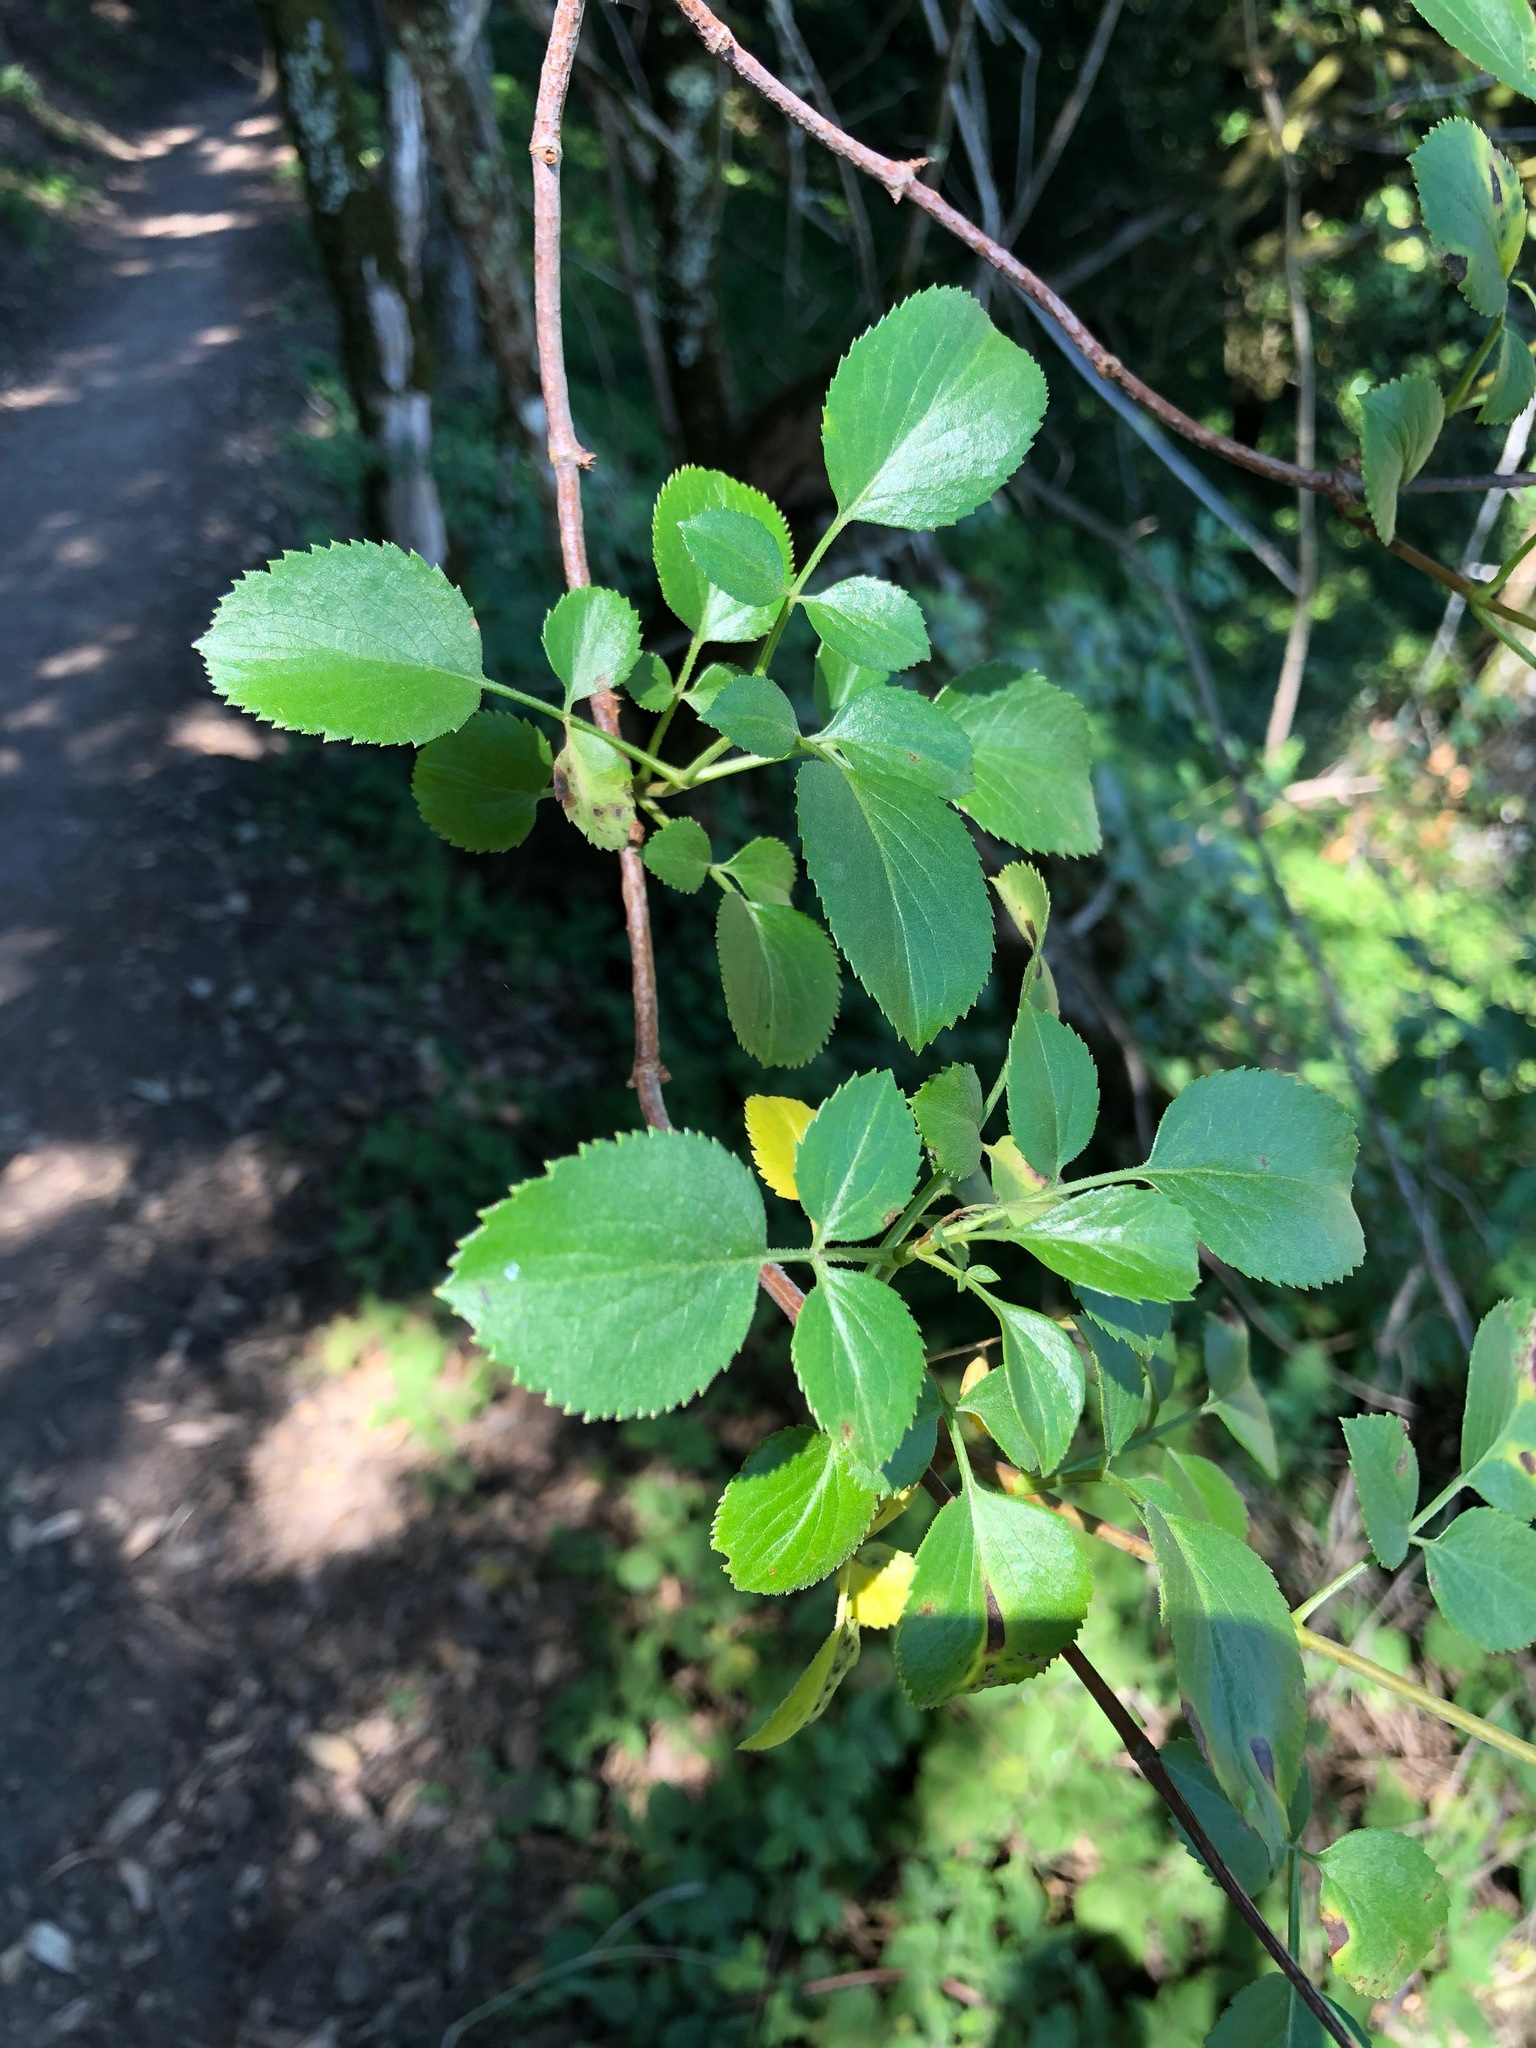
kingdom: Plantae
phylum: Tracheophyta
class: Magnoliopsida
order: Dipsacales
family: Viburnaceae
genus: Sambucus
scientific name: Sambucus cerulea
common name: Blue elder
